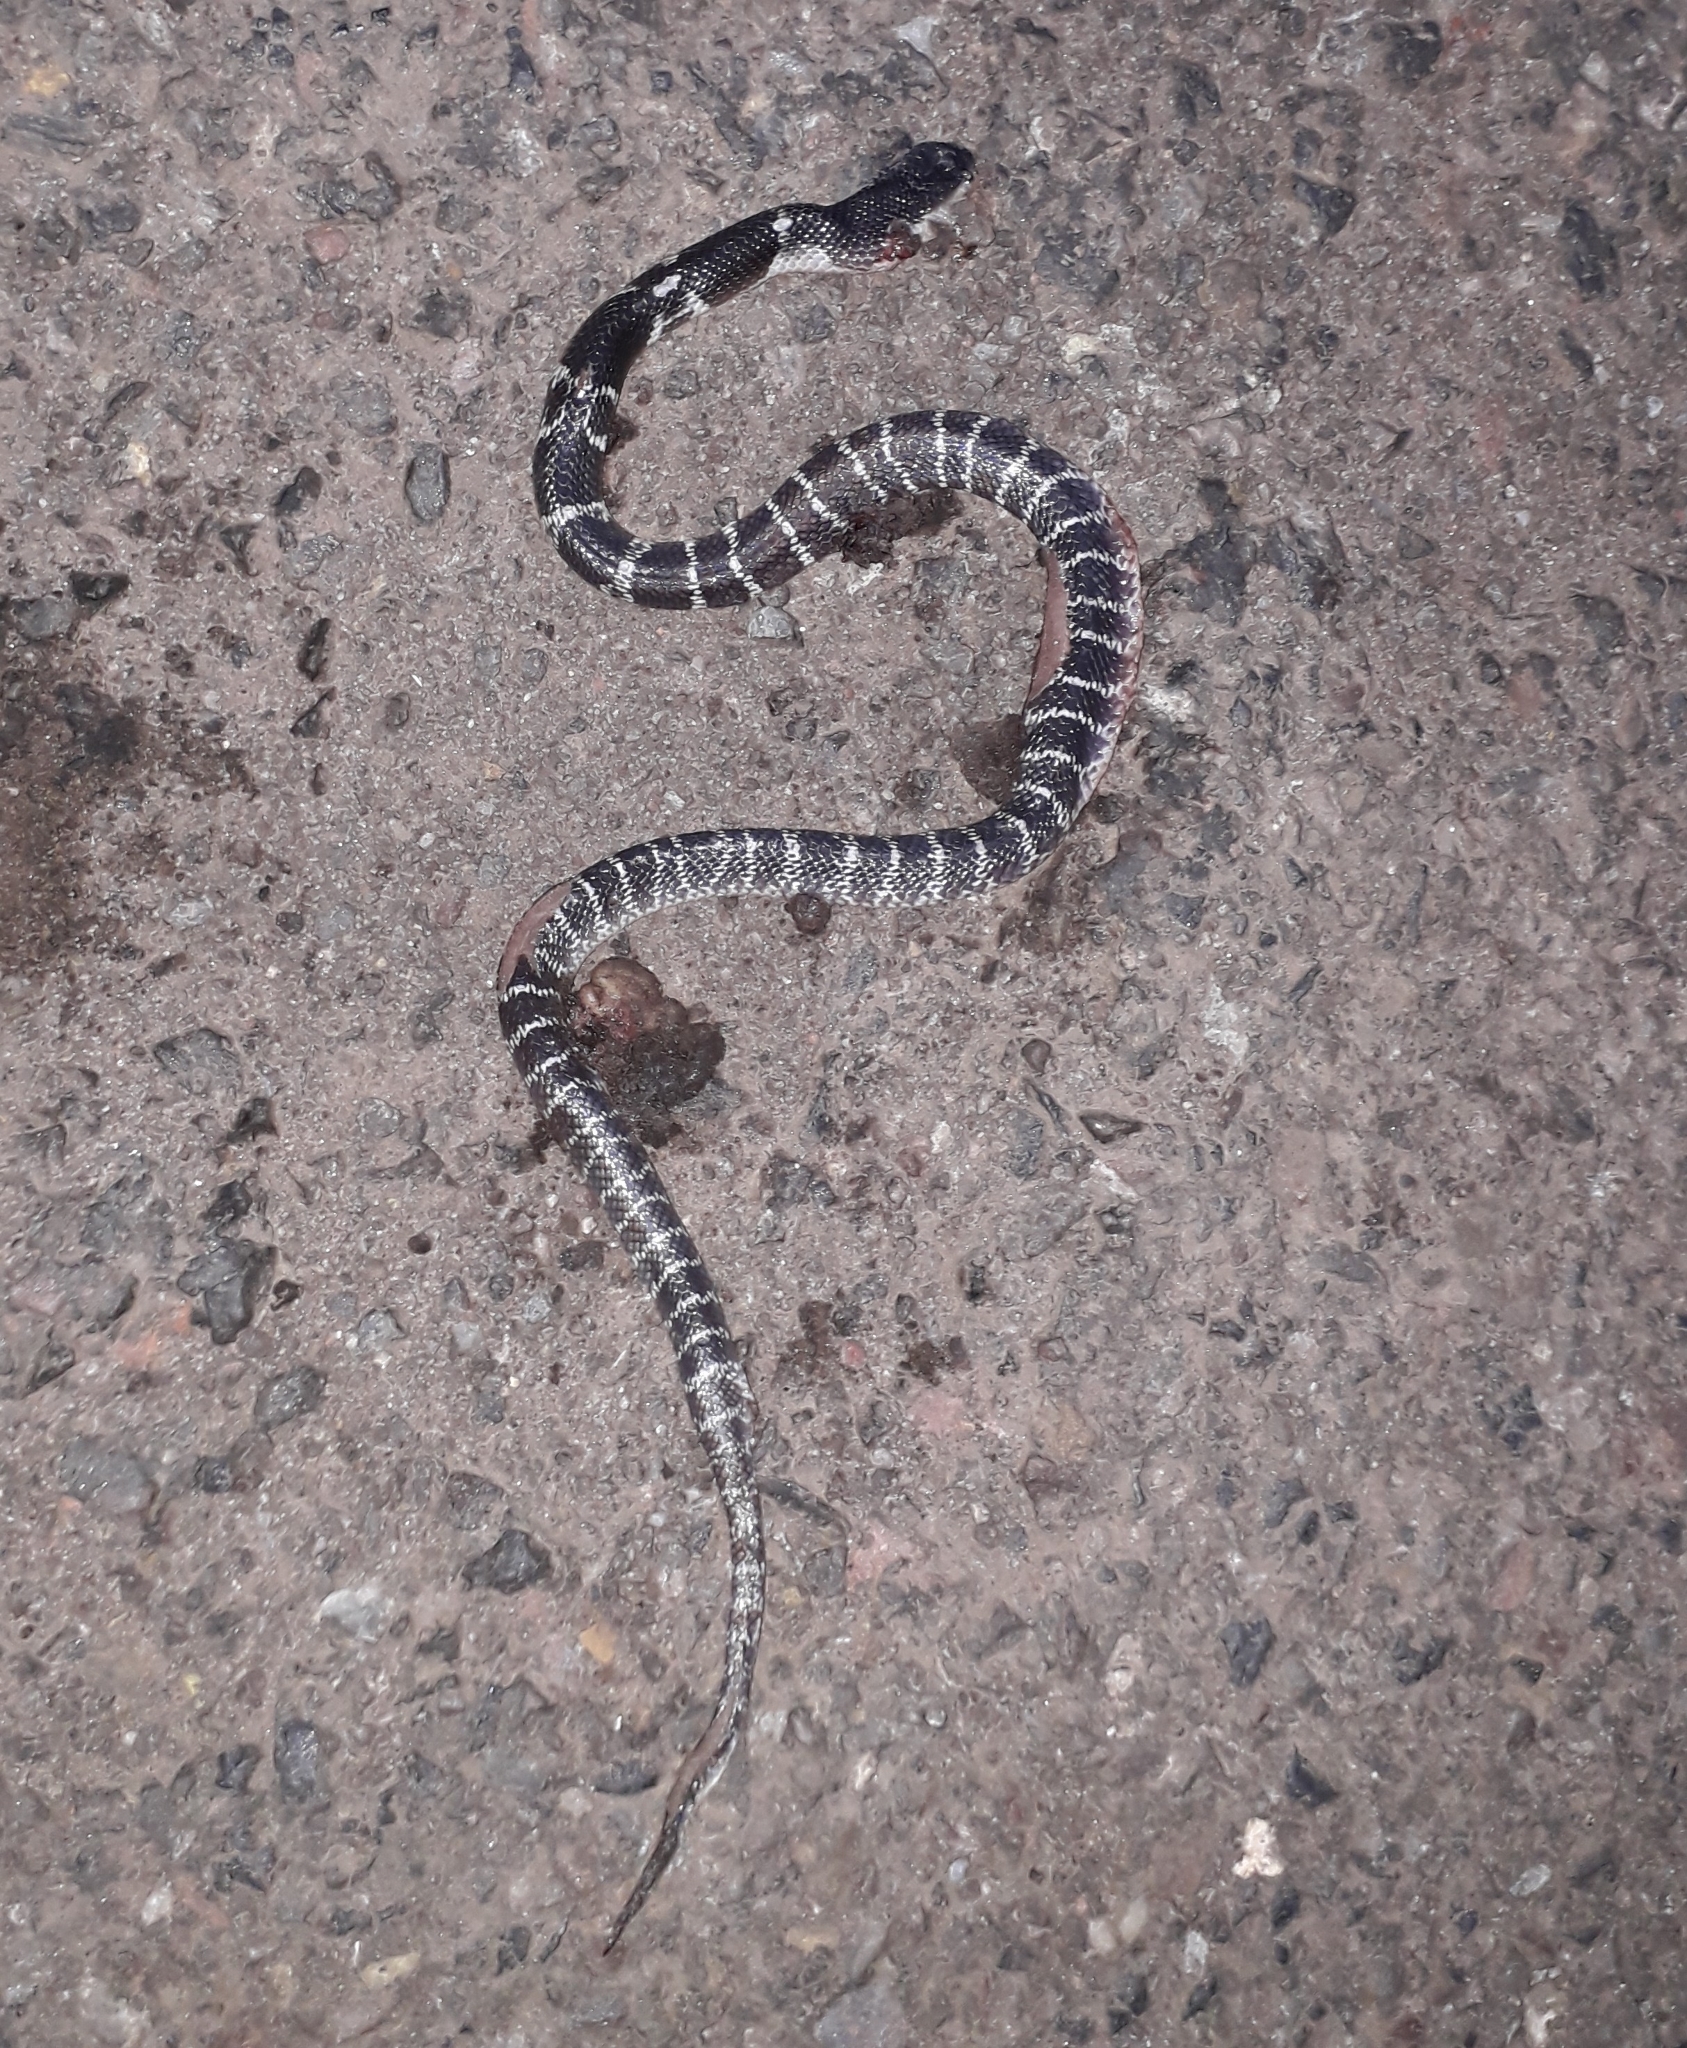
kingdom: Animalia
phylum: Chordata
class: Squamata
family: Elapidae
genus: Bungarus
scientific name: Bungarus caeruleus
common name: Common krait
